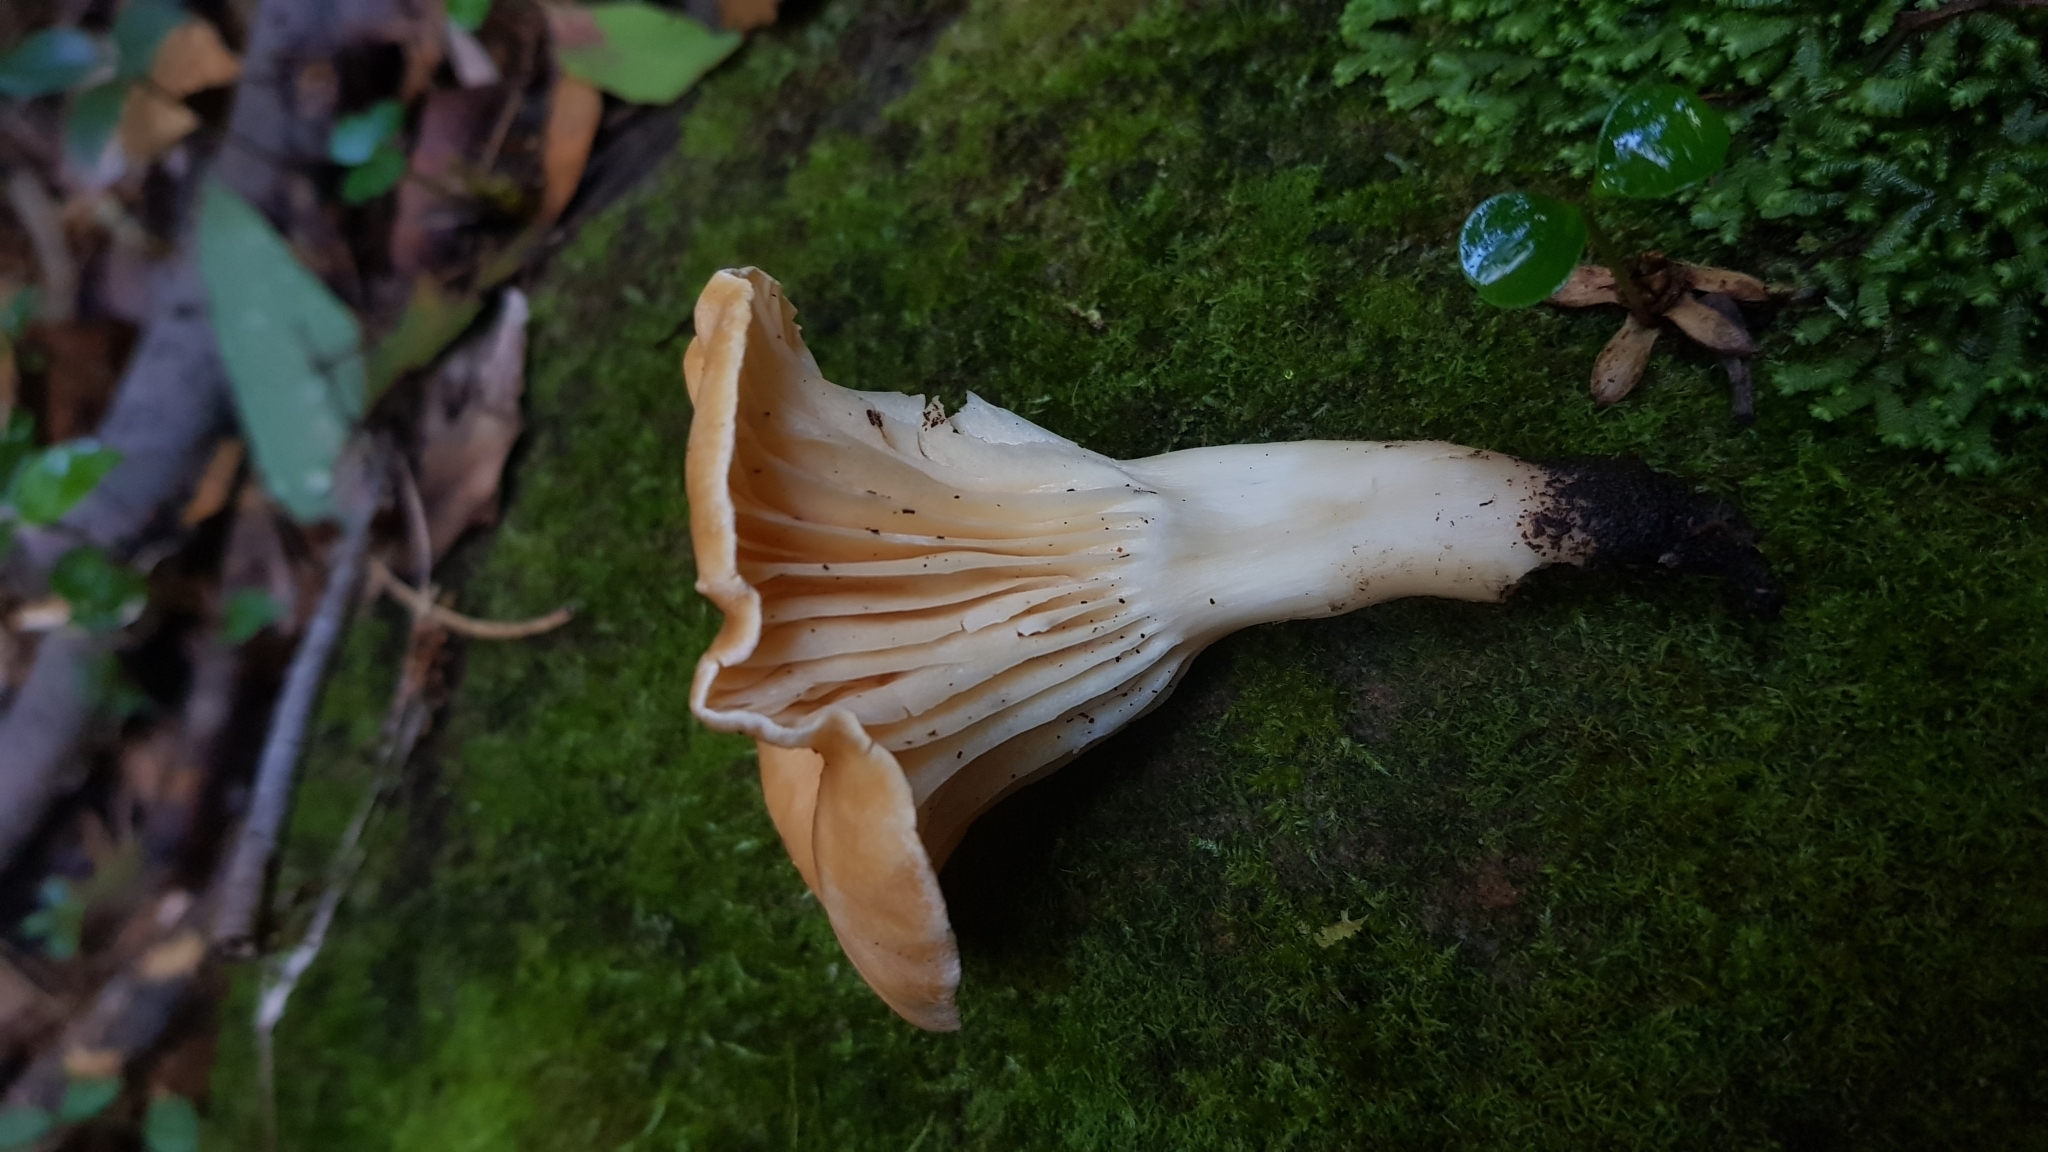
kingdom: Fungi
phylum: Basidiomycota
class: Agaricomycetes
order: Agaricales
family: Hygrophoraceae
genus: Cuphophyllus
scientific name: Cuphophyllus
